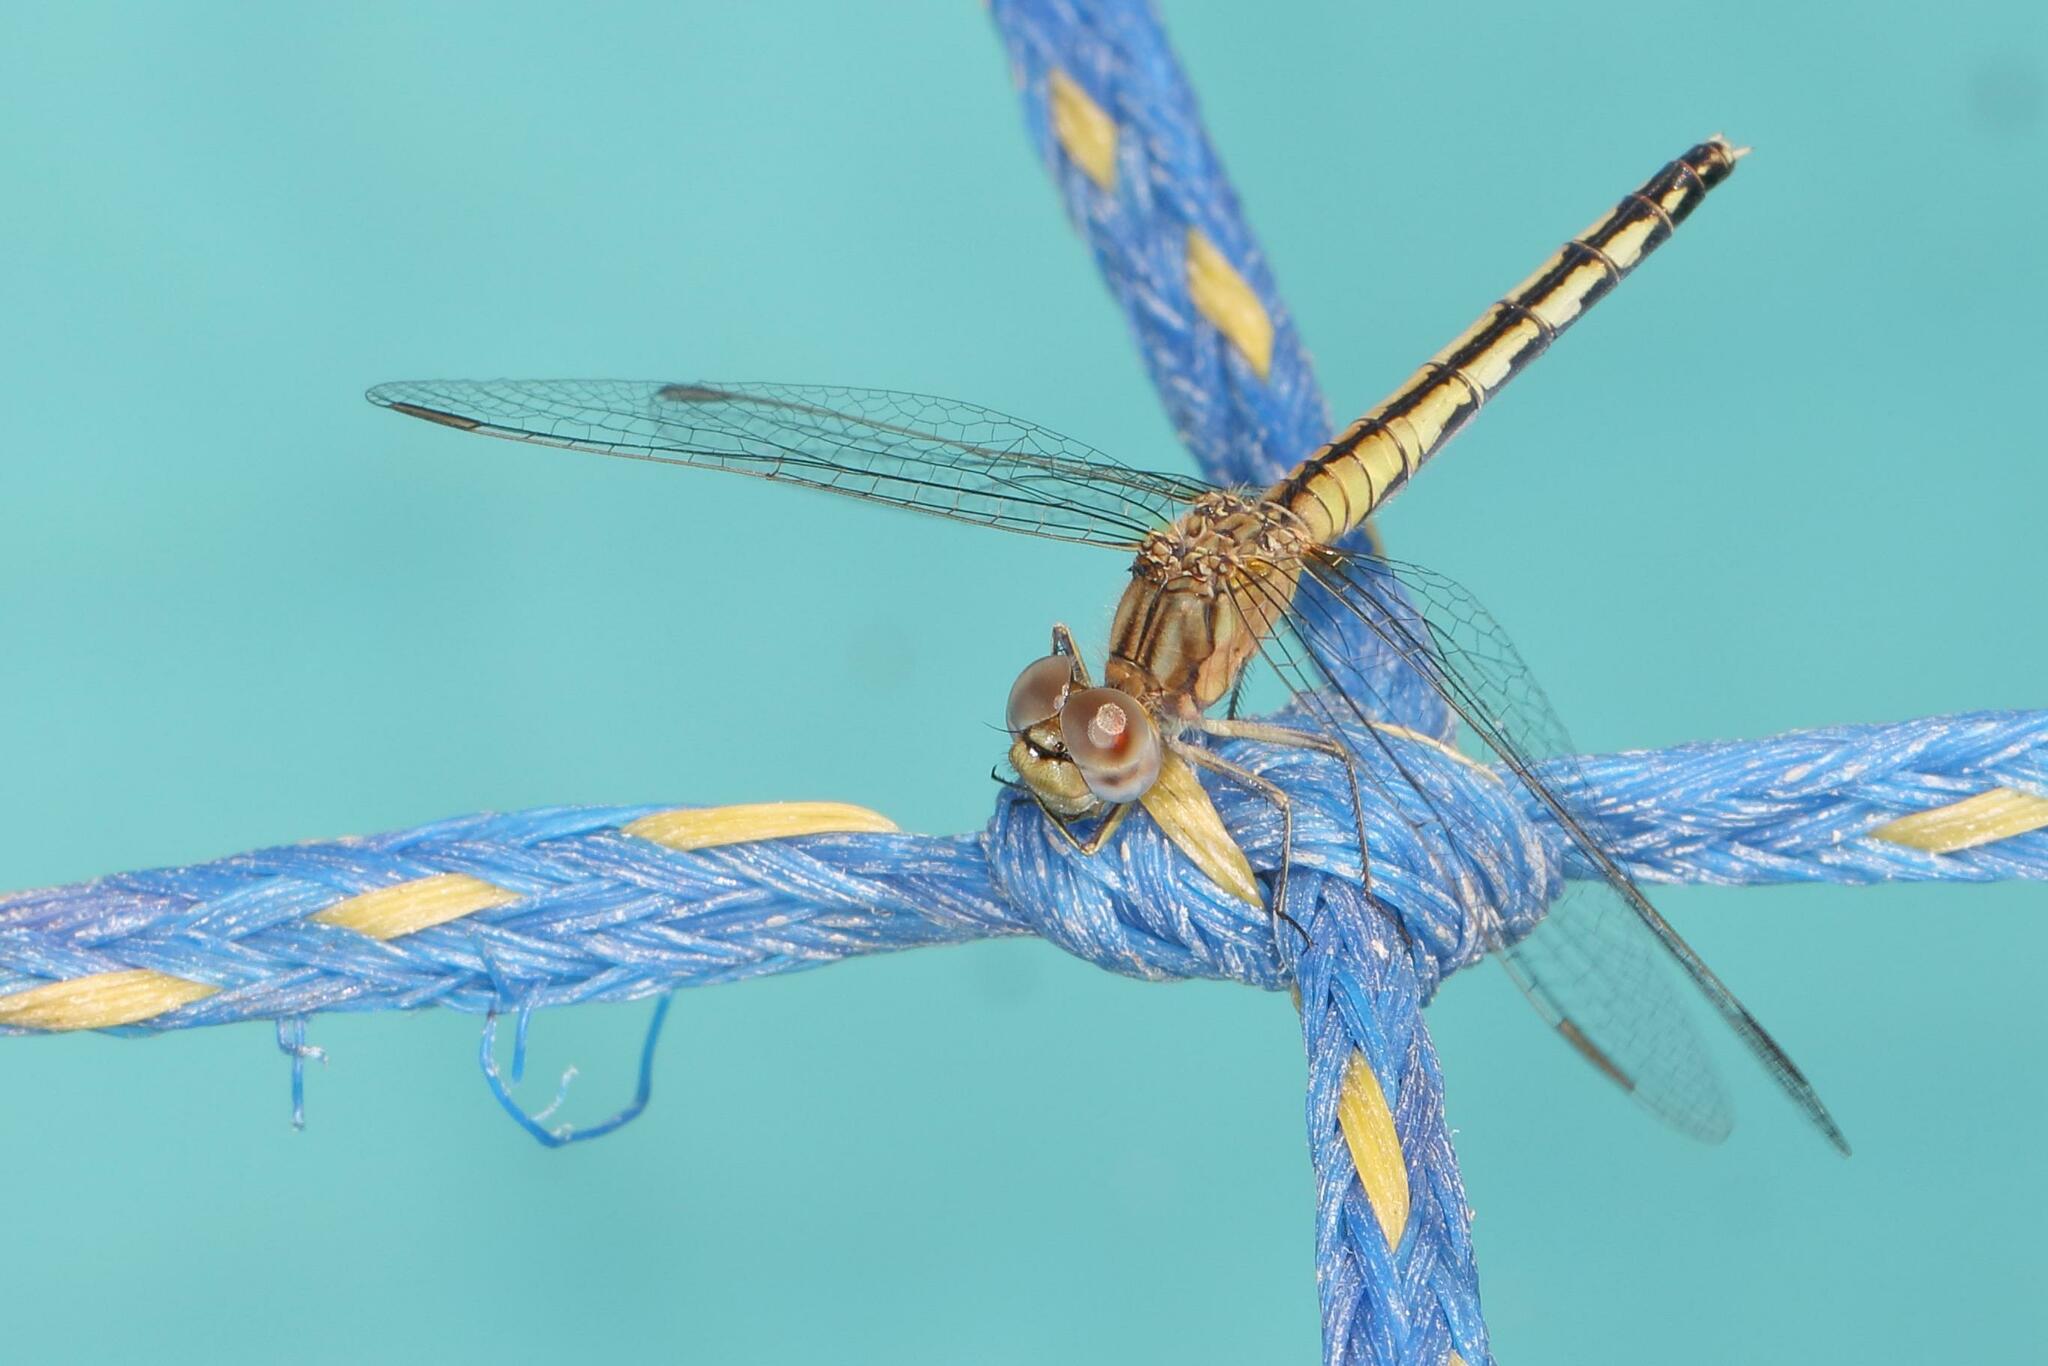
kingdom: Animalia
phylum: Arthropoda
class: Insecta
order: Odonata
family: Libellulidae
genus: Diplacodes
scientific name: Diplacodes lefebvrii
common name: Black percher
